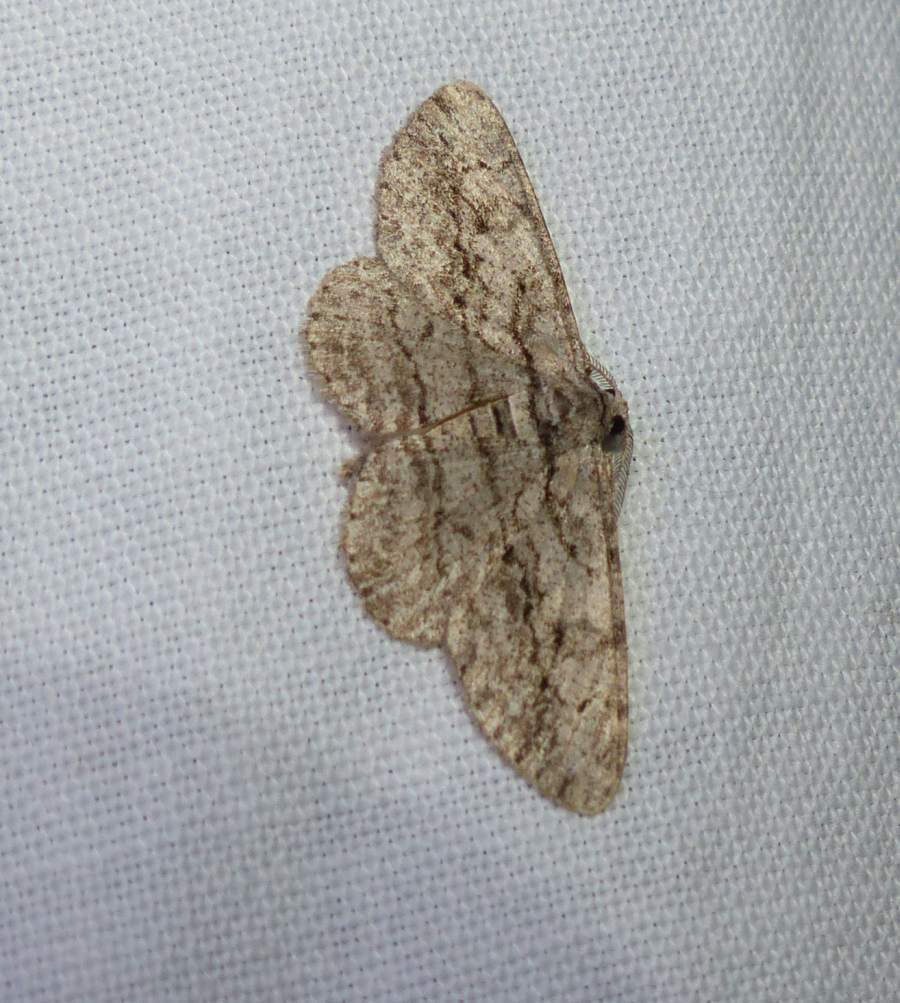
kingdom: Animalia
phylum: Arthropoda
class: Insecta
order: Lepidoptera
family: Geometridae
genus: Anavitrinella
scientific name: Anavitrinella pampinaria
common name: Common gray
